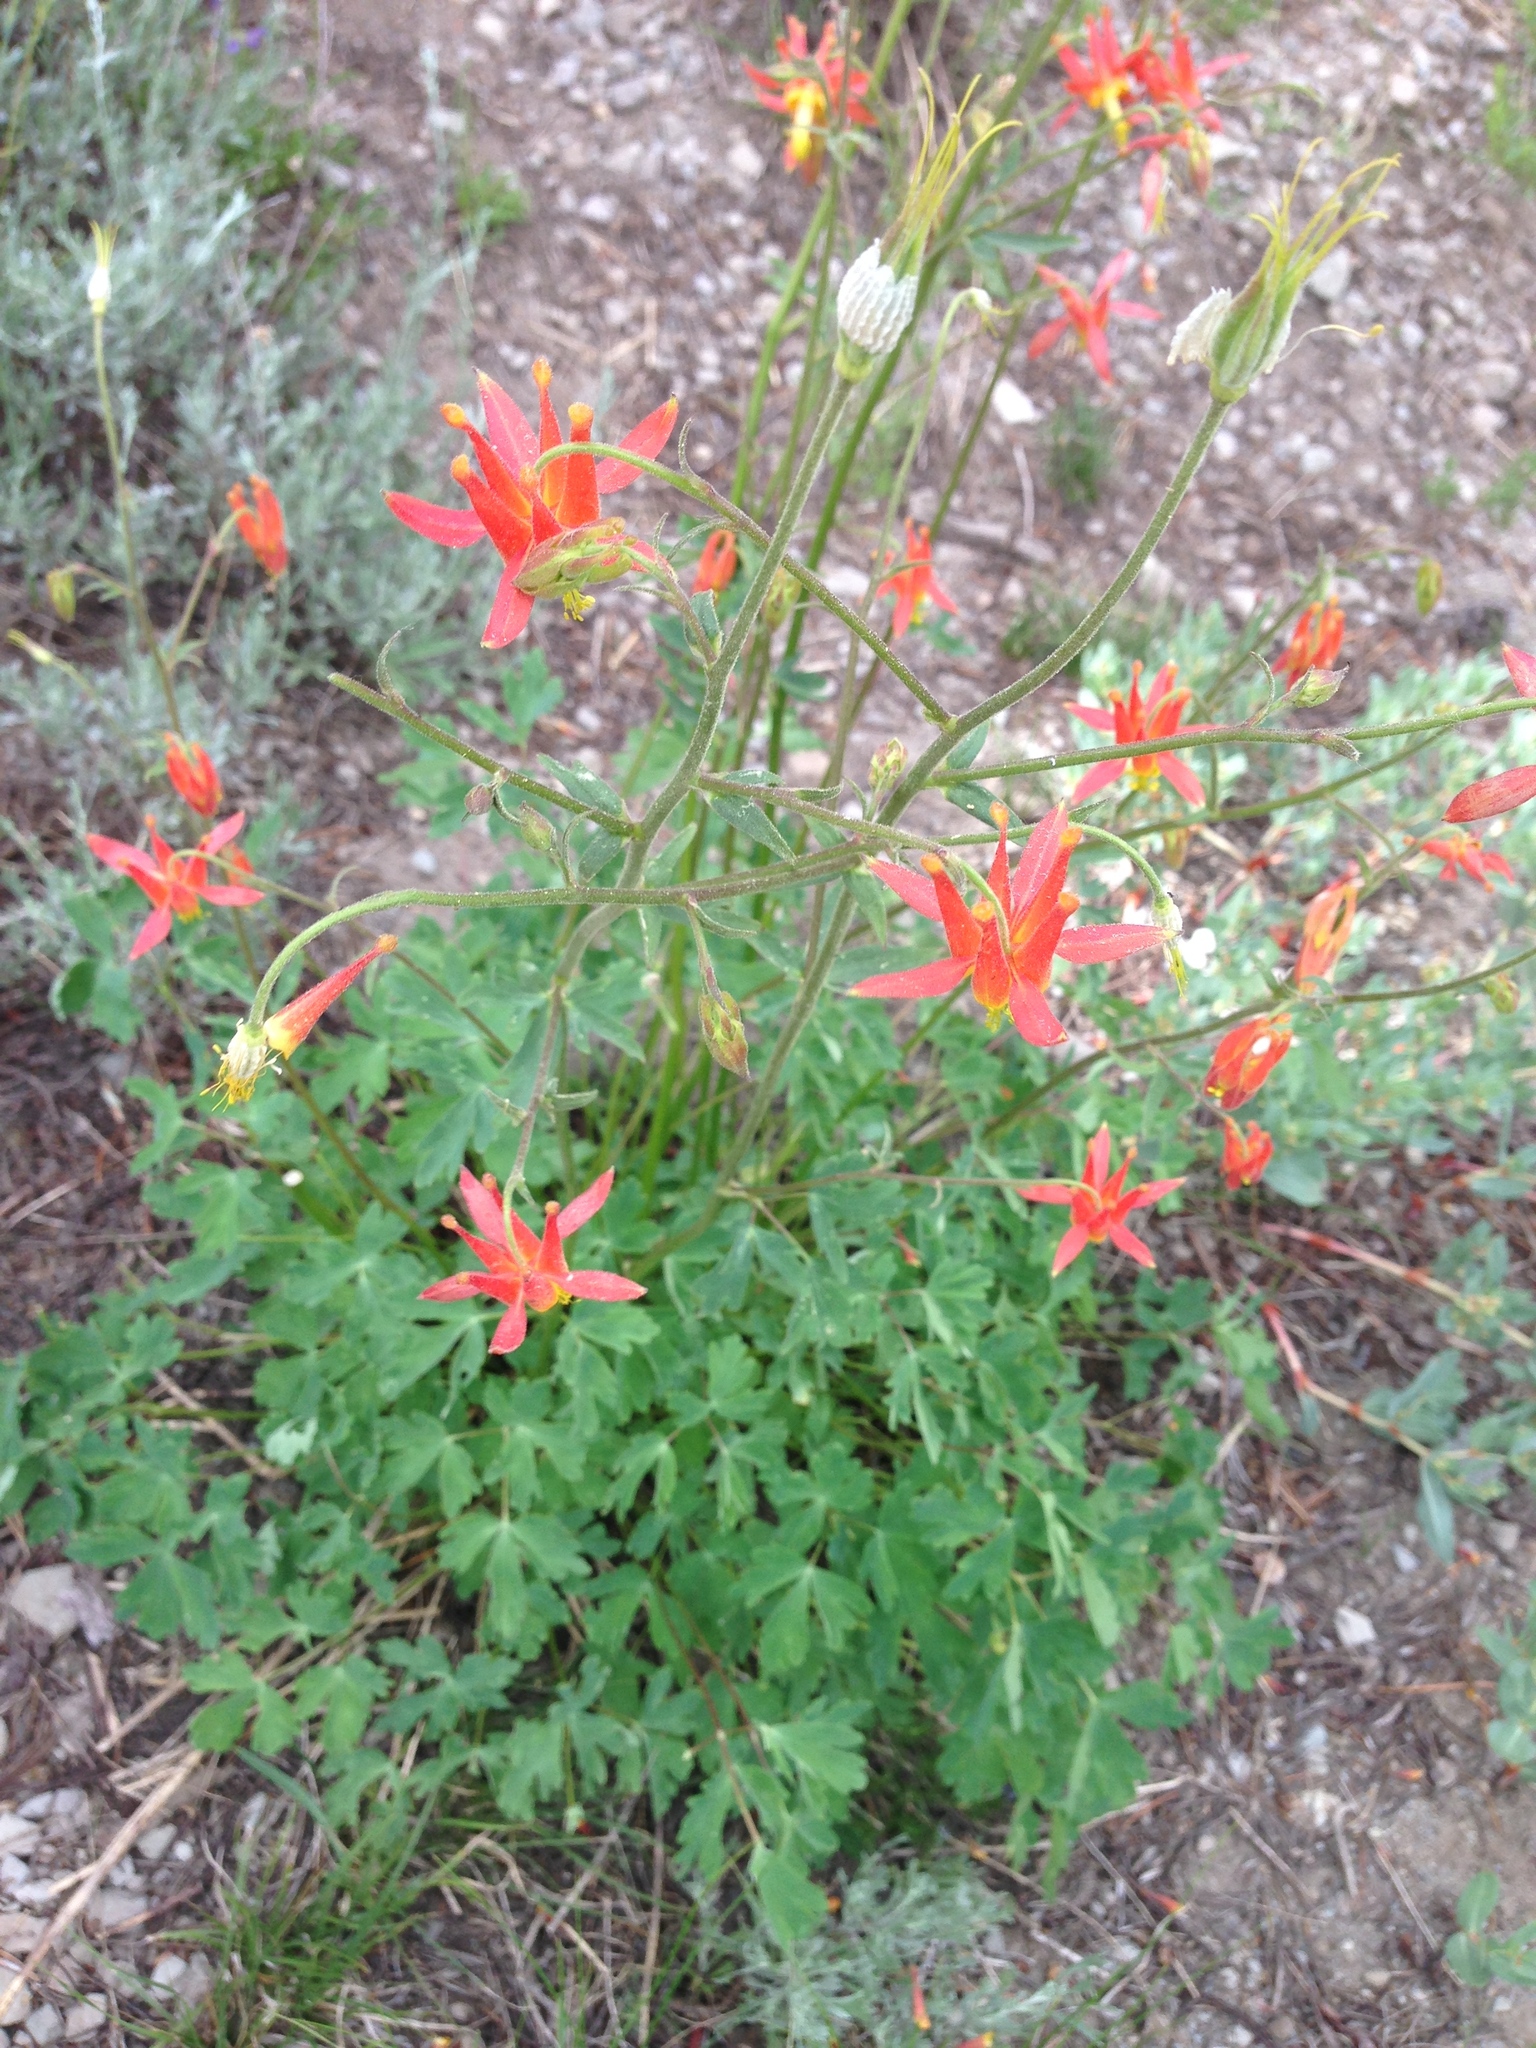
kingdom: Plantae
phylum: Tracheophyta
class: Magnoliopsida
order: Ranunculales
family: Ranunculaceae
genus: Aquilegia
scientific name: Aquilegia formosa
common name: Sitka columbine
